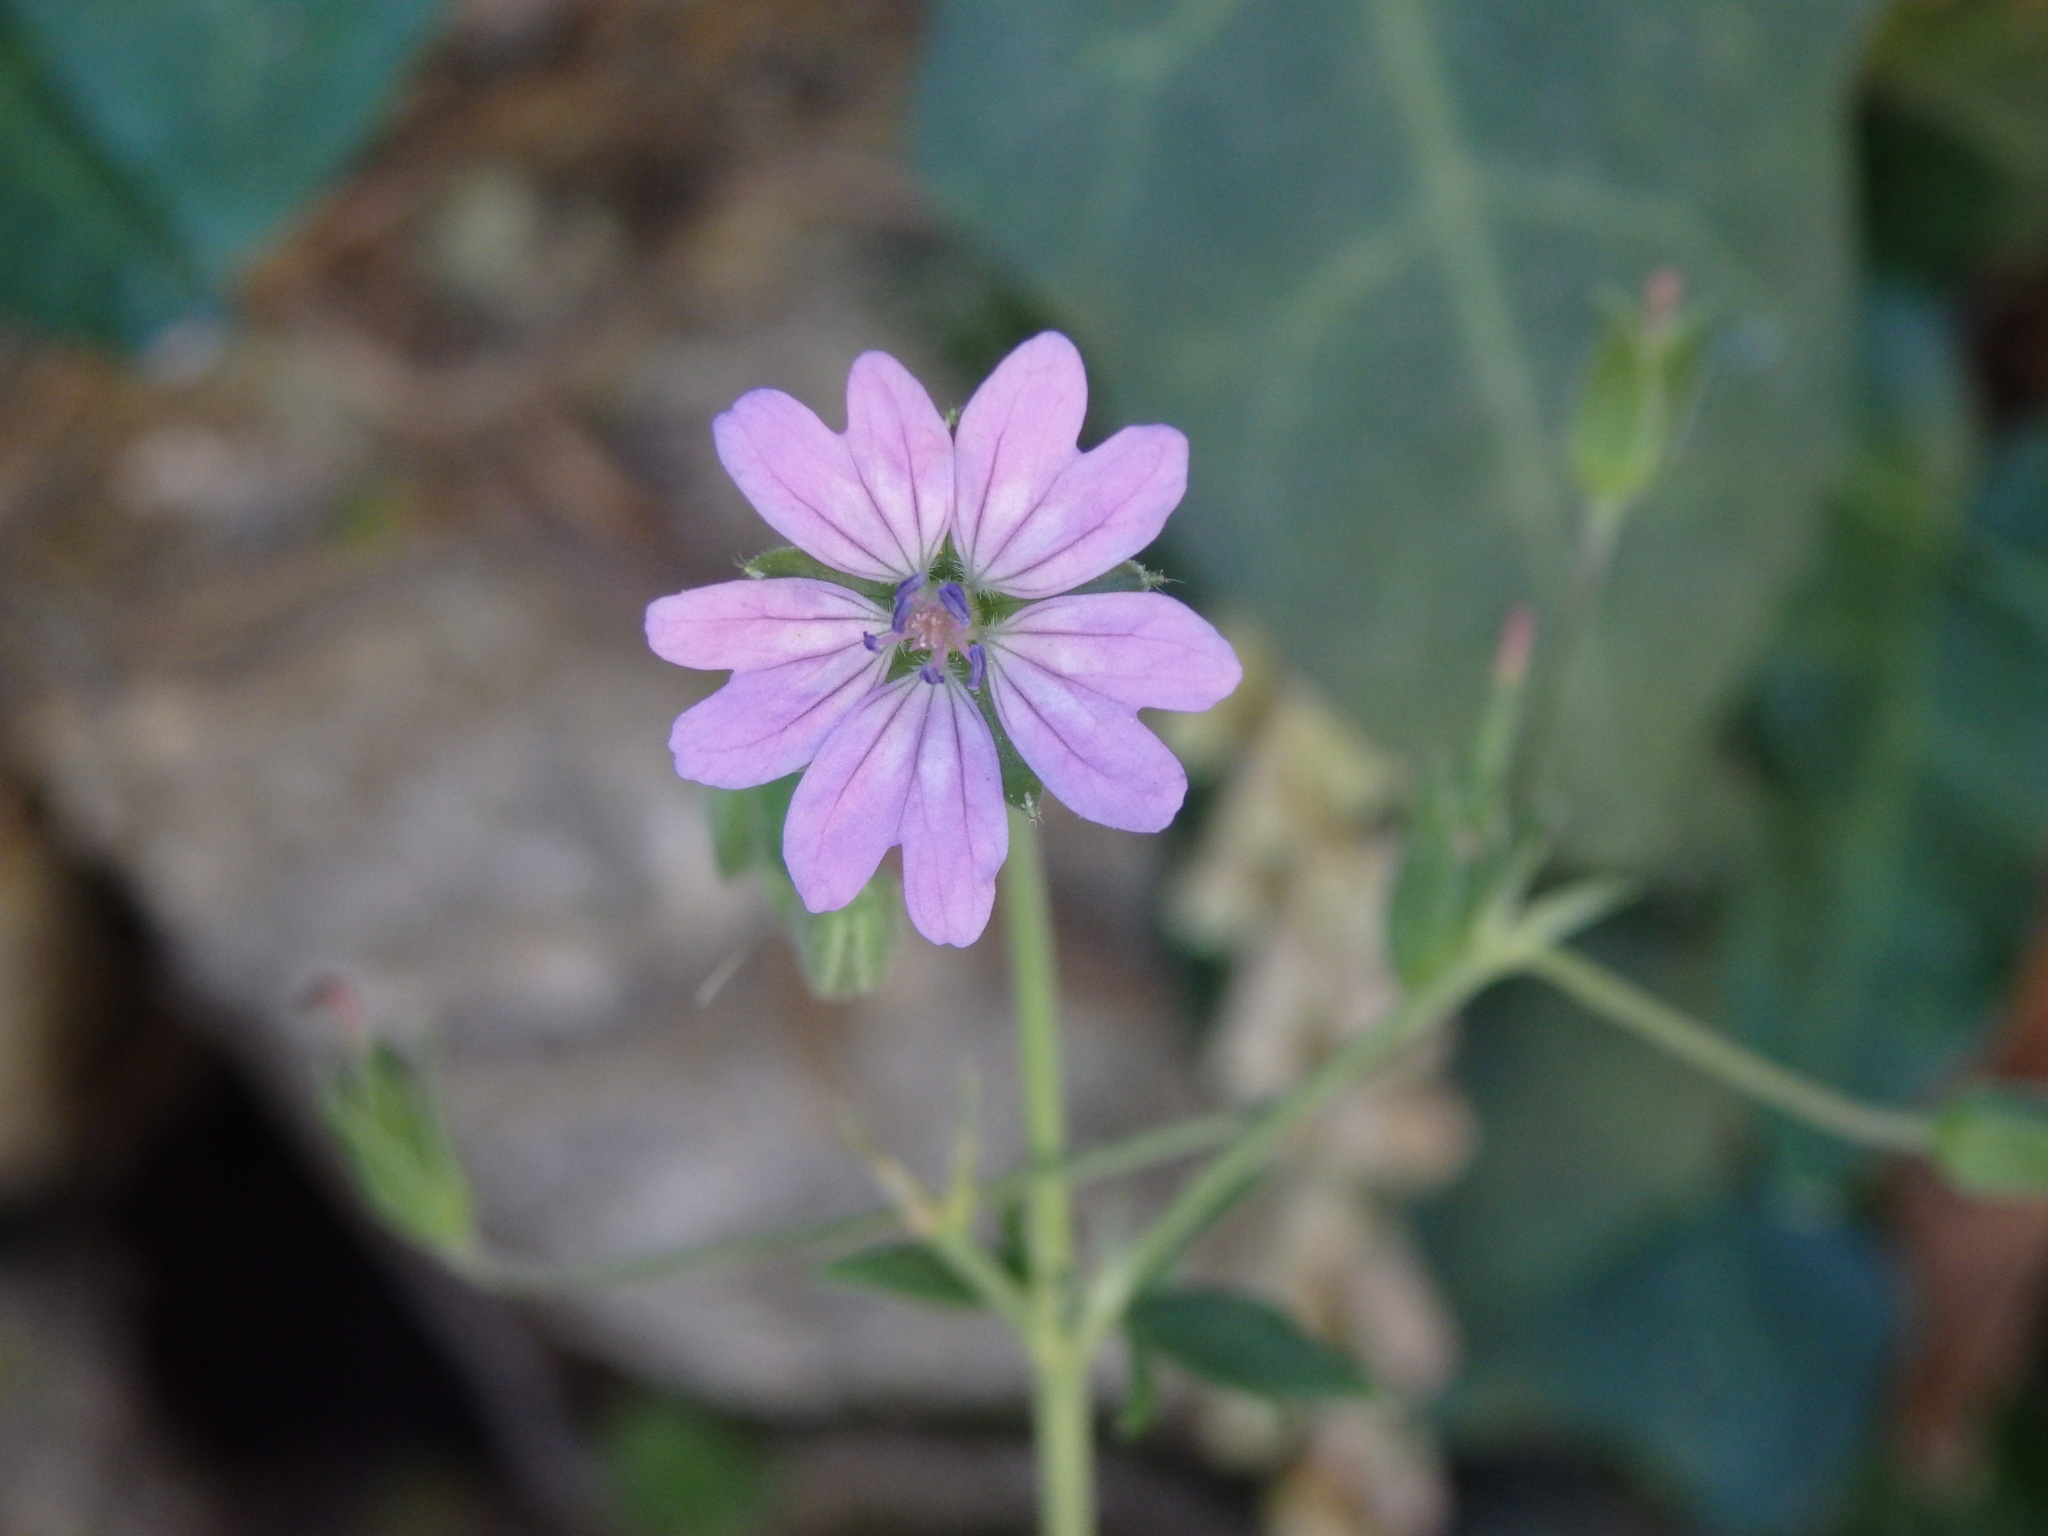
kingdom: Plantae
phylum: Tracheophyta
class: Magnoliopsida
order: Geraniales
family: Geraniaceae
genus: Geranium
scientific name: Geranium pyrenaicum
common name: Hedgerow crane's-bill
